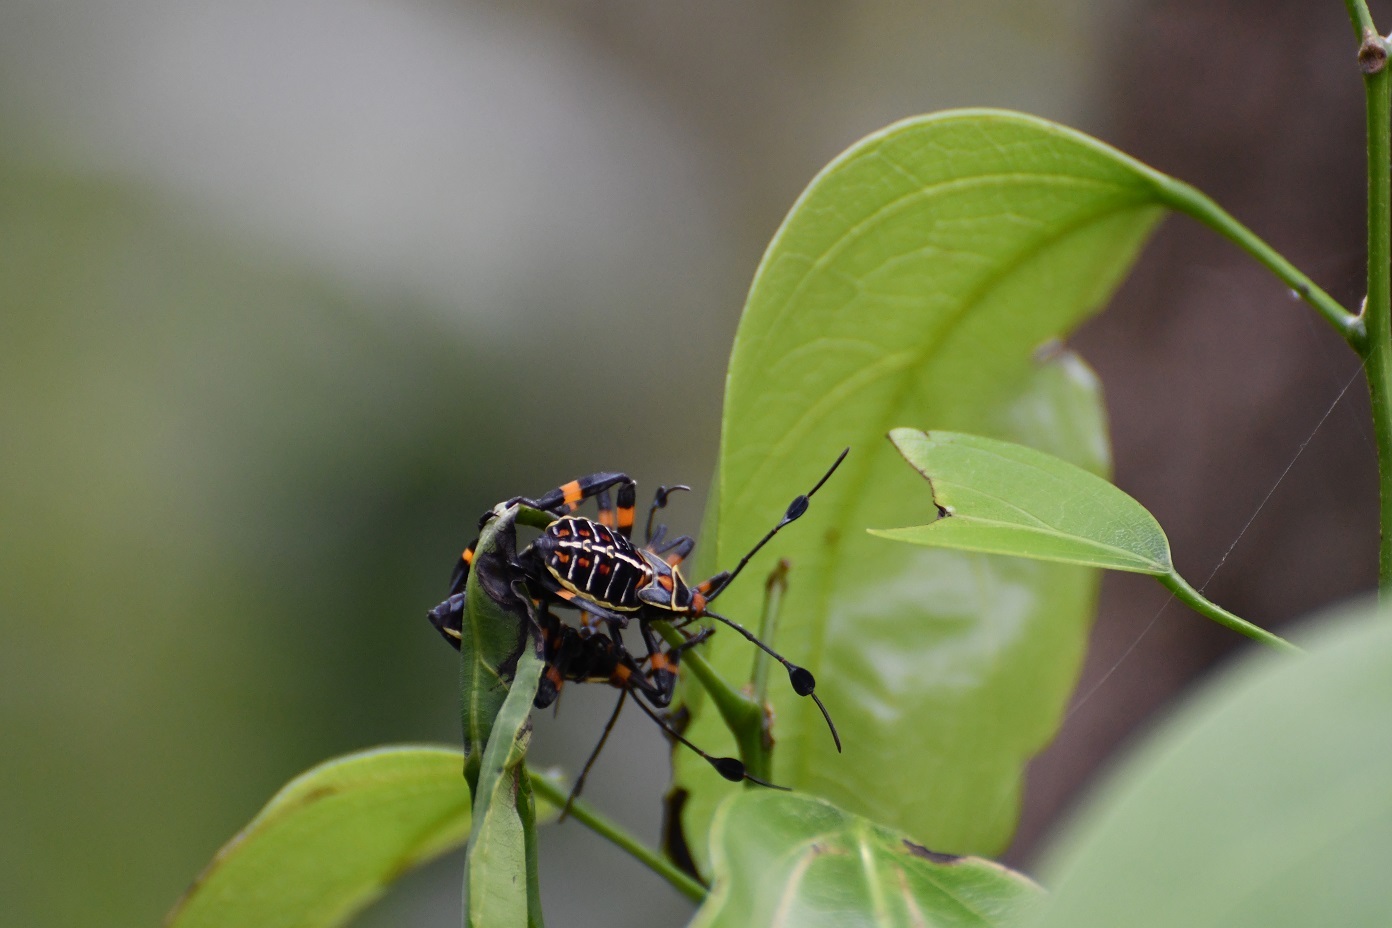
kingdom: Animalia
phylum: Arthropoda
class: Insecta
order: Hemiptera
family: Coreidae
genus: Thasus
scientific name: Thasus acutangulus
